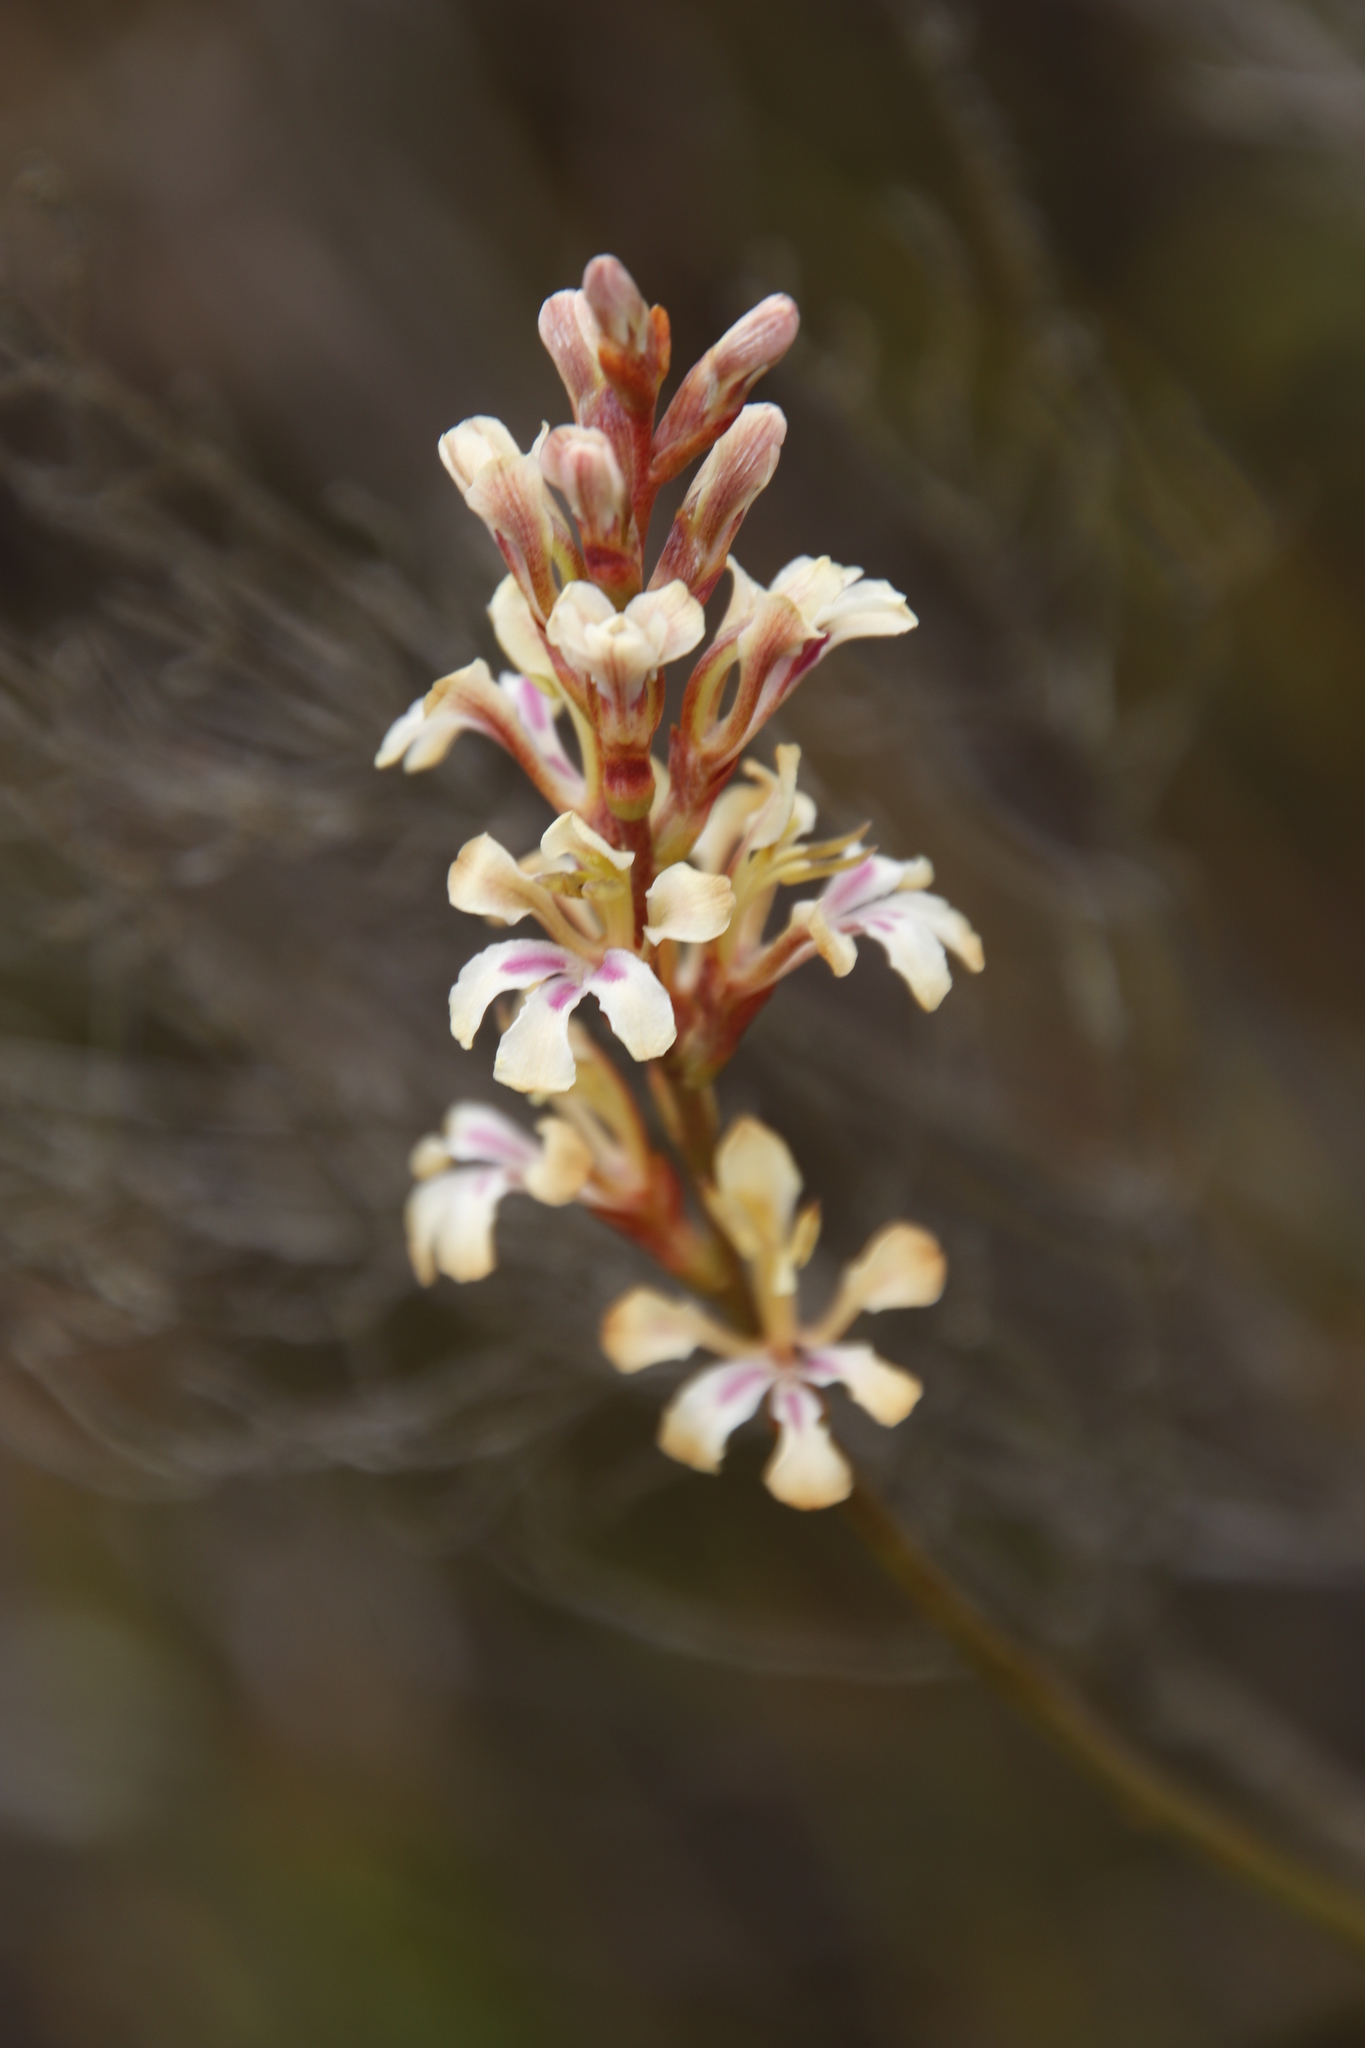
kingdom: Plantae
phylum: Tracheophyta
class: Liliopsida
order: Asparagales
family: Iridaceae
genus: Tritoniopsis
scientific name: Tritoniopsis unguicularis
